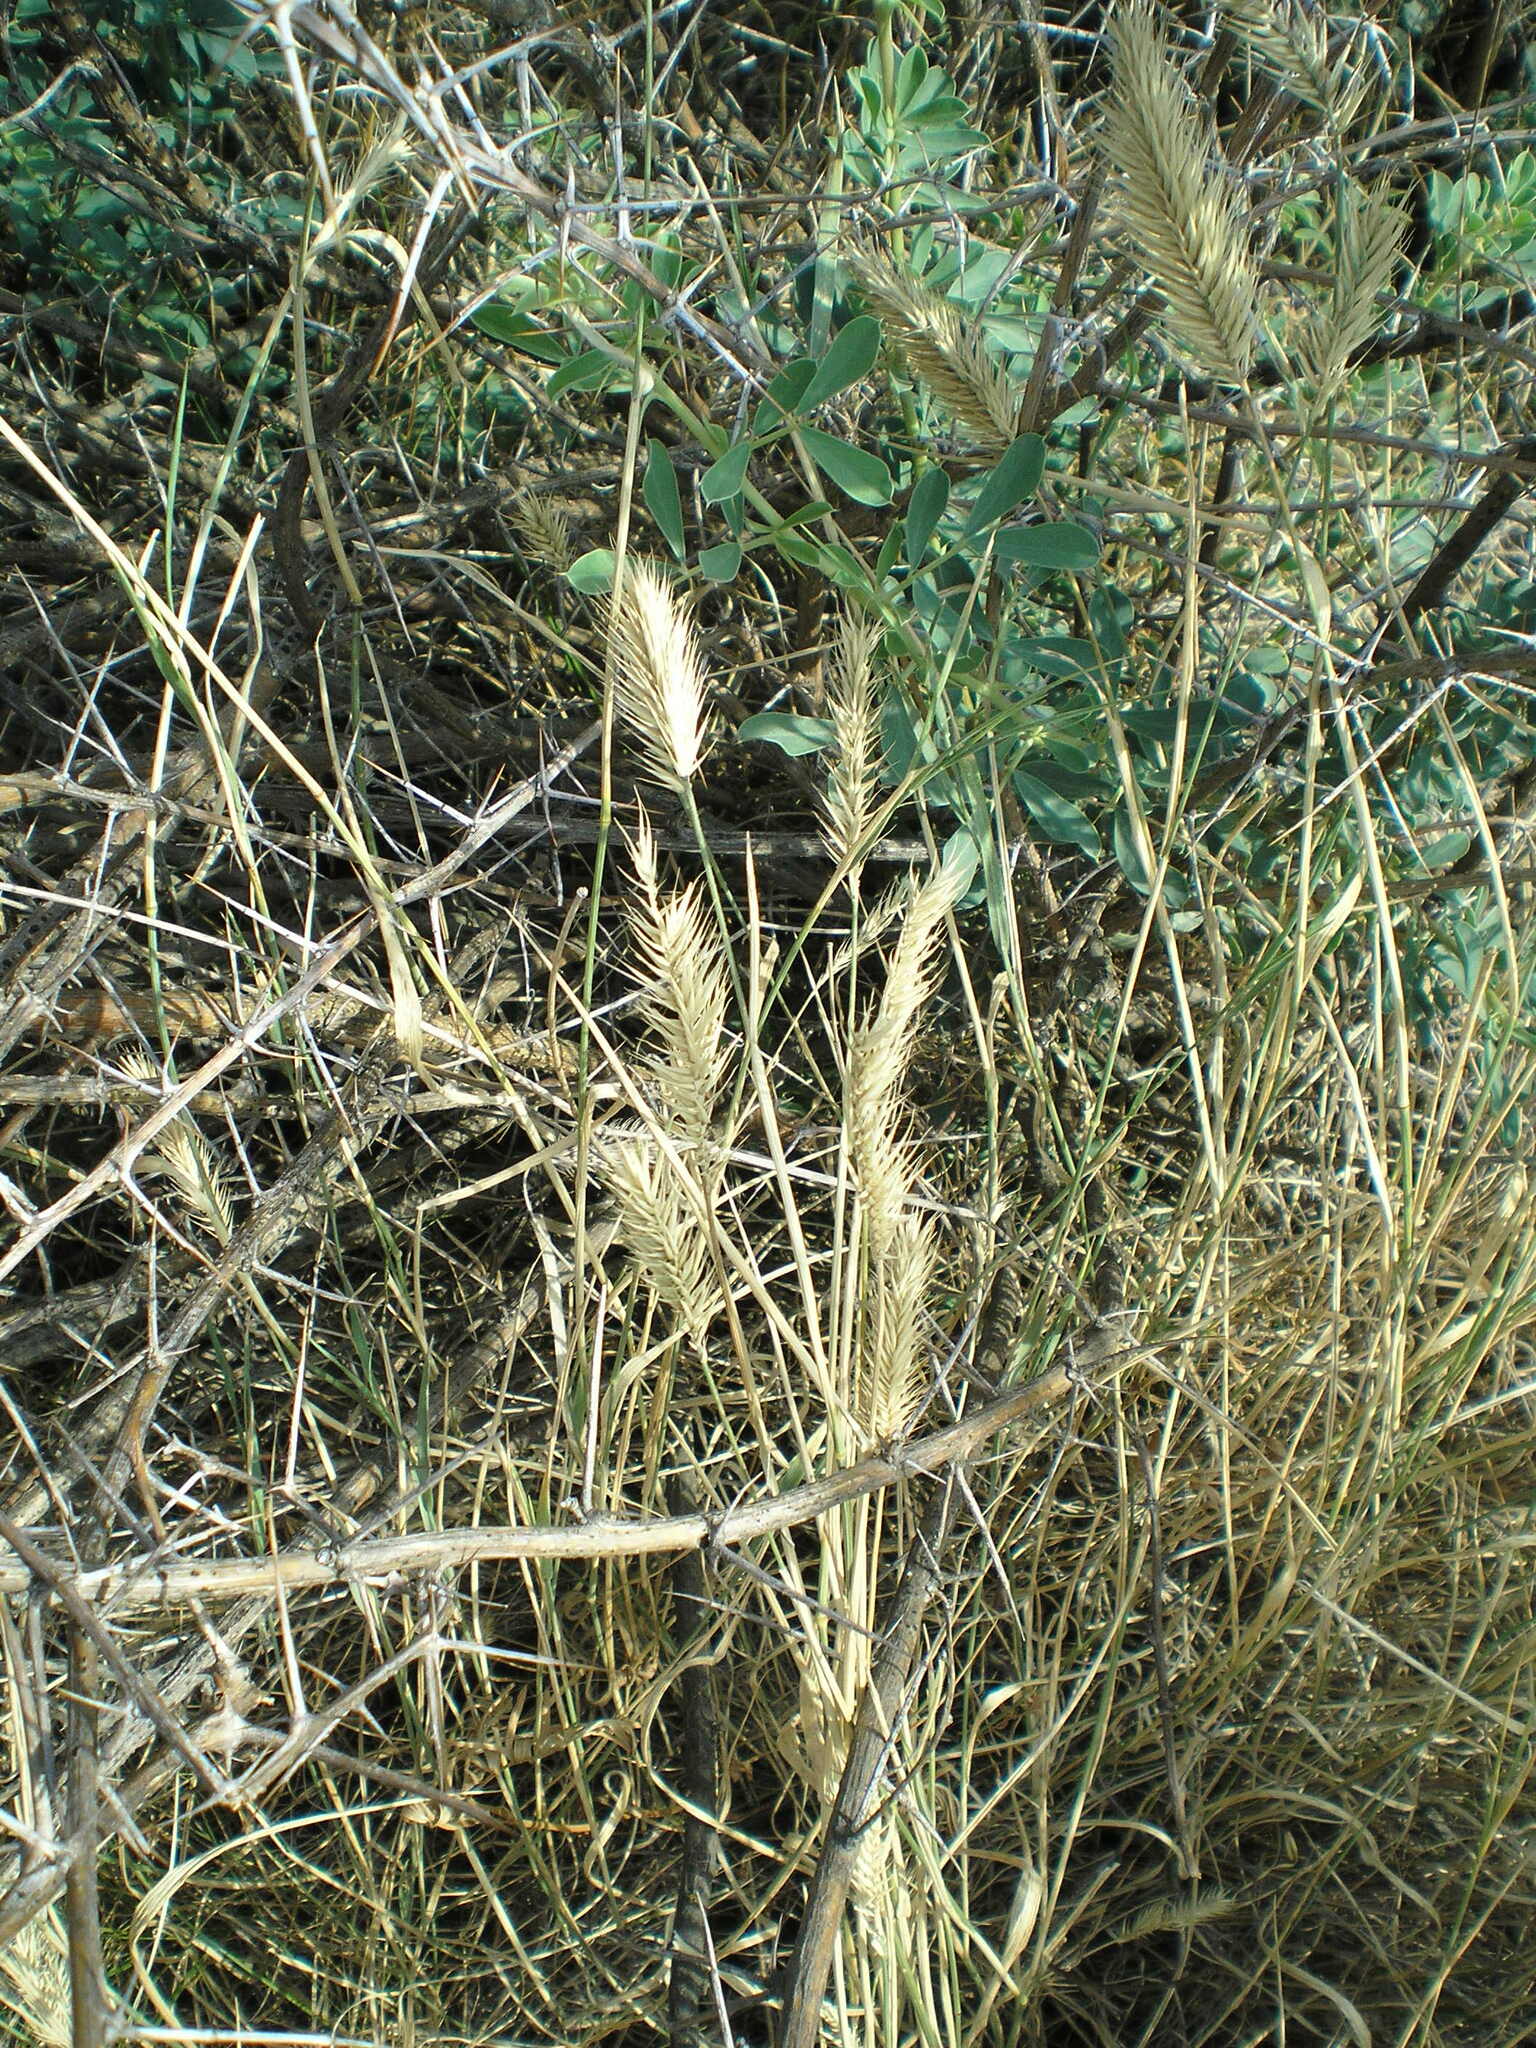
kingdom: Plantae
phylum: Tracheophyta
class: Liliopsida
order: Poales
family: Poaceae
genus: Agropyron
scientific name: Agropyron cristatum
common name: Crested wheatgrass
